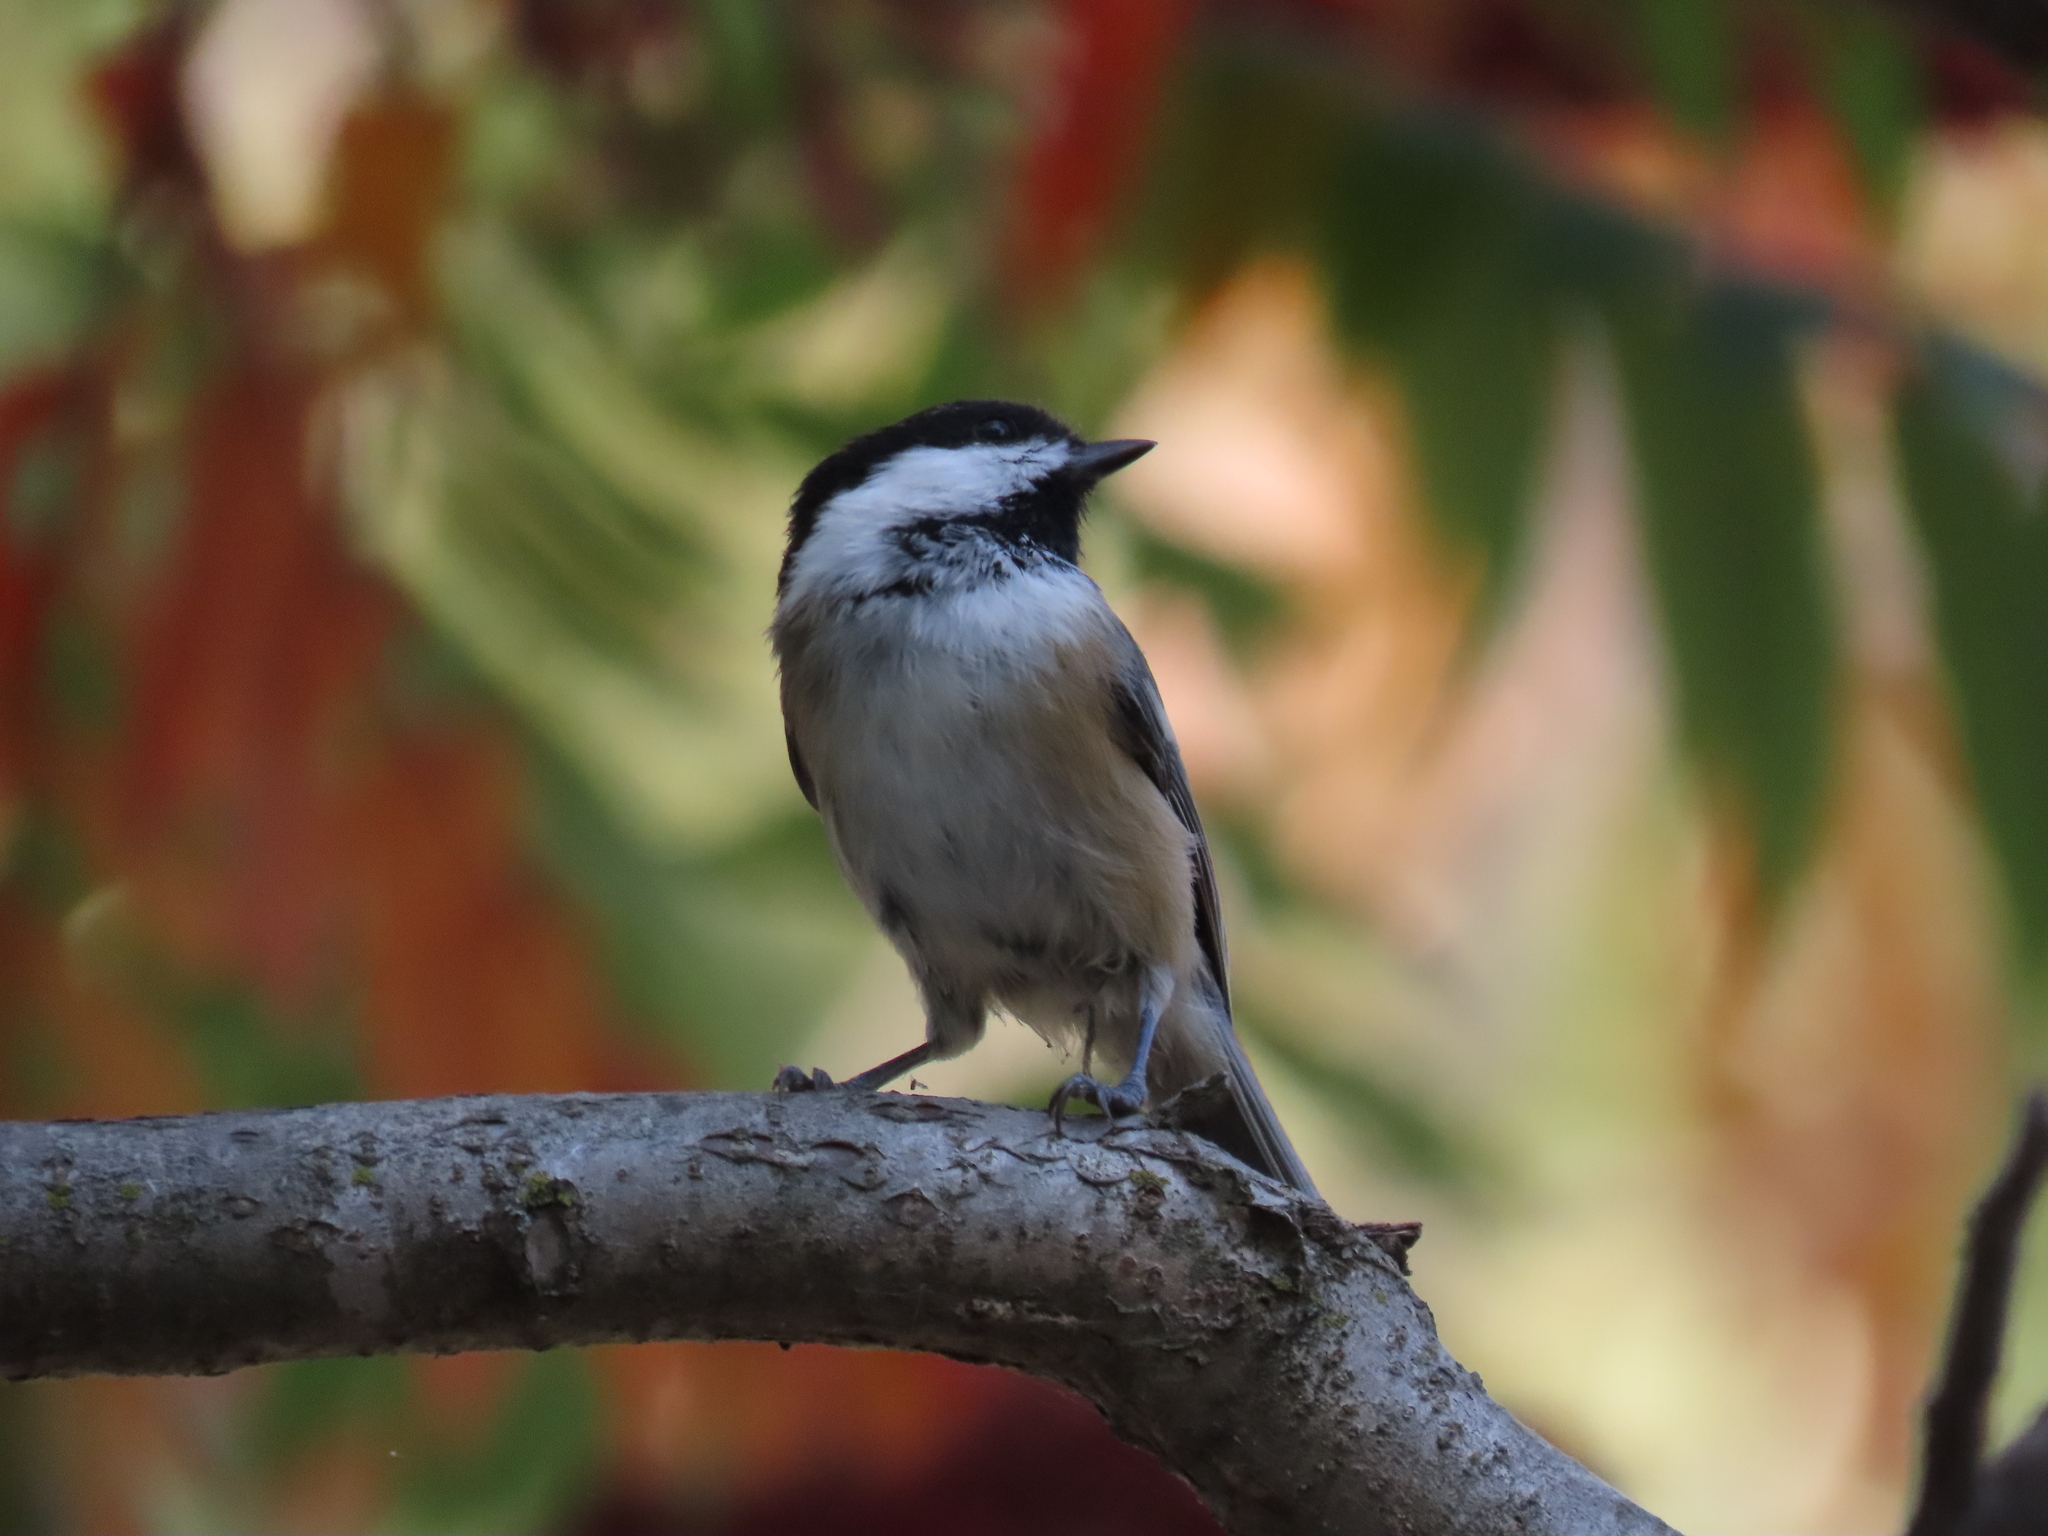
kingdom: Animalia
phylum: Chordata
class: Aves
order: Passeriformes
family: Paridae
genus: Poecile
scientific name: Poecile atricapillus
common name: Black-capped chickadee
